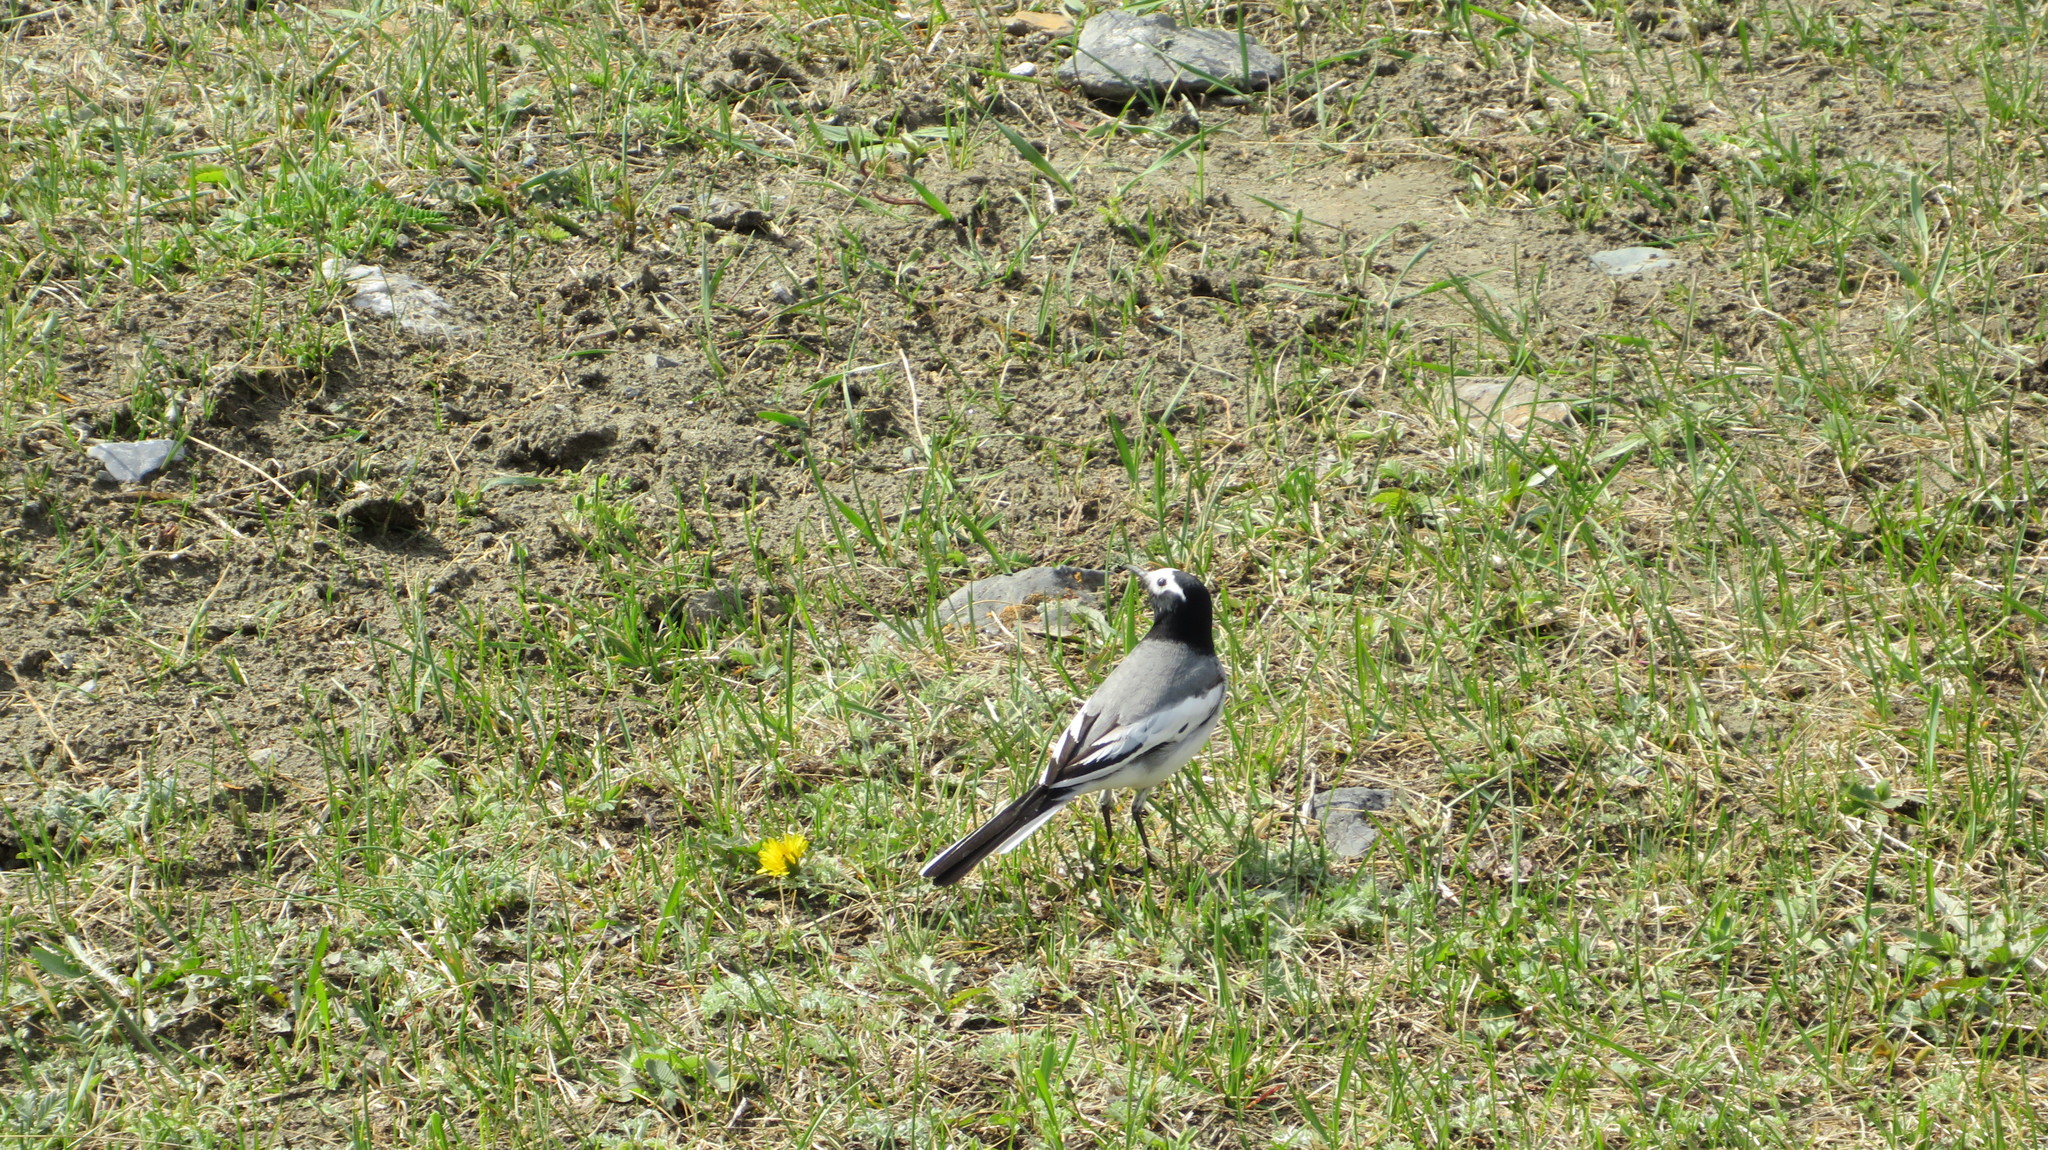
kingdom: Animalia
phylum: Chordata
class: Aves
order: Passeriformes
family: Motacillidae
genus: Motacilla
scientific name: Motacilla alba
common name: White wagtail
